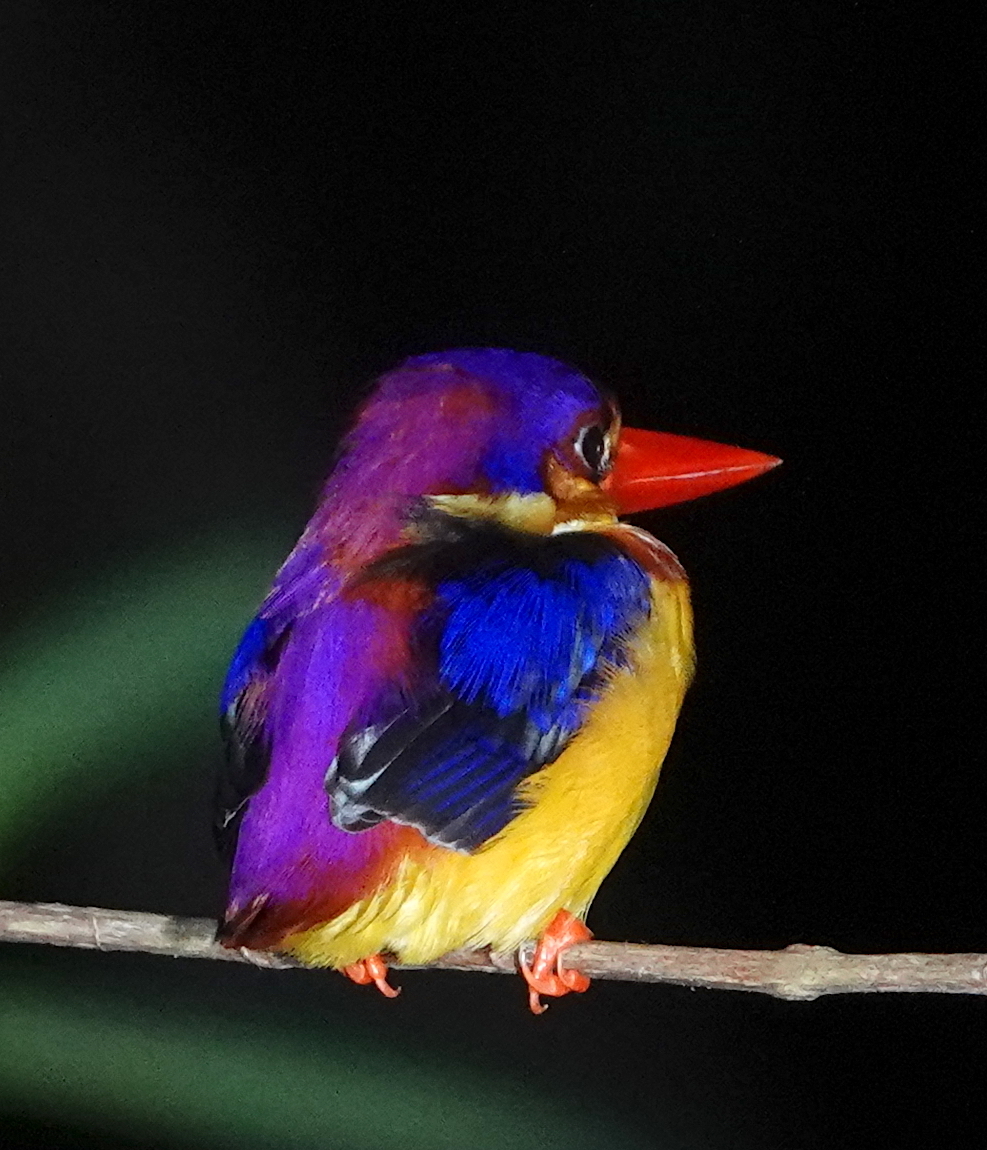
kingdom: Animalia
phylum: Chordata
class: Aves
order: Coraciiformes
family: Alcedinidae
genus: Ceyx
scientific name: Ceyx erithaca
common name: Oriental dwarf kingfisher
